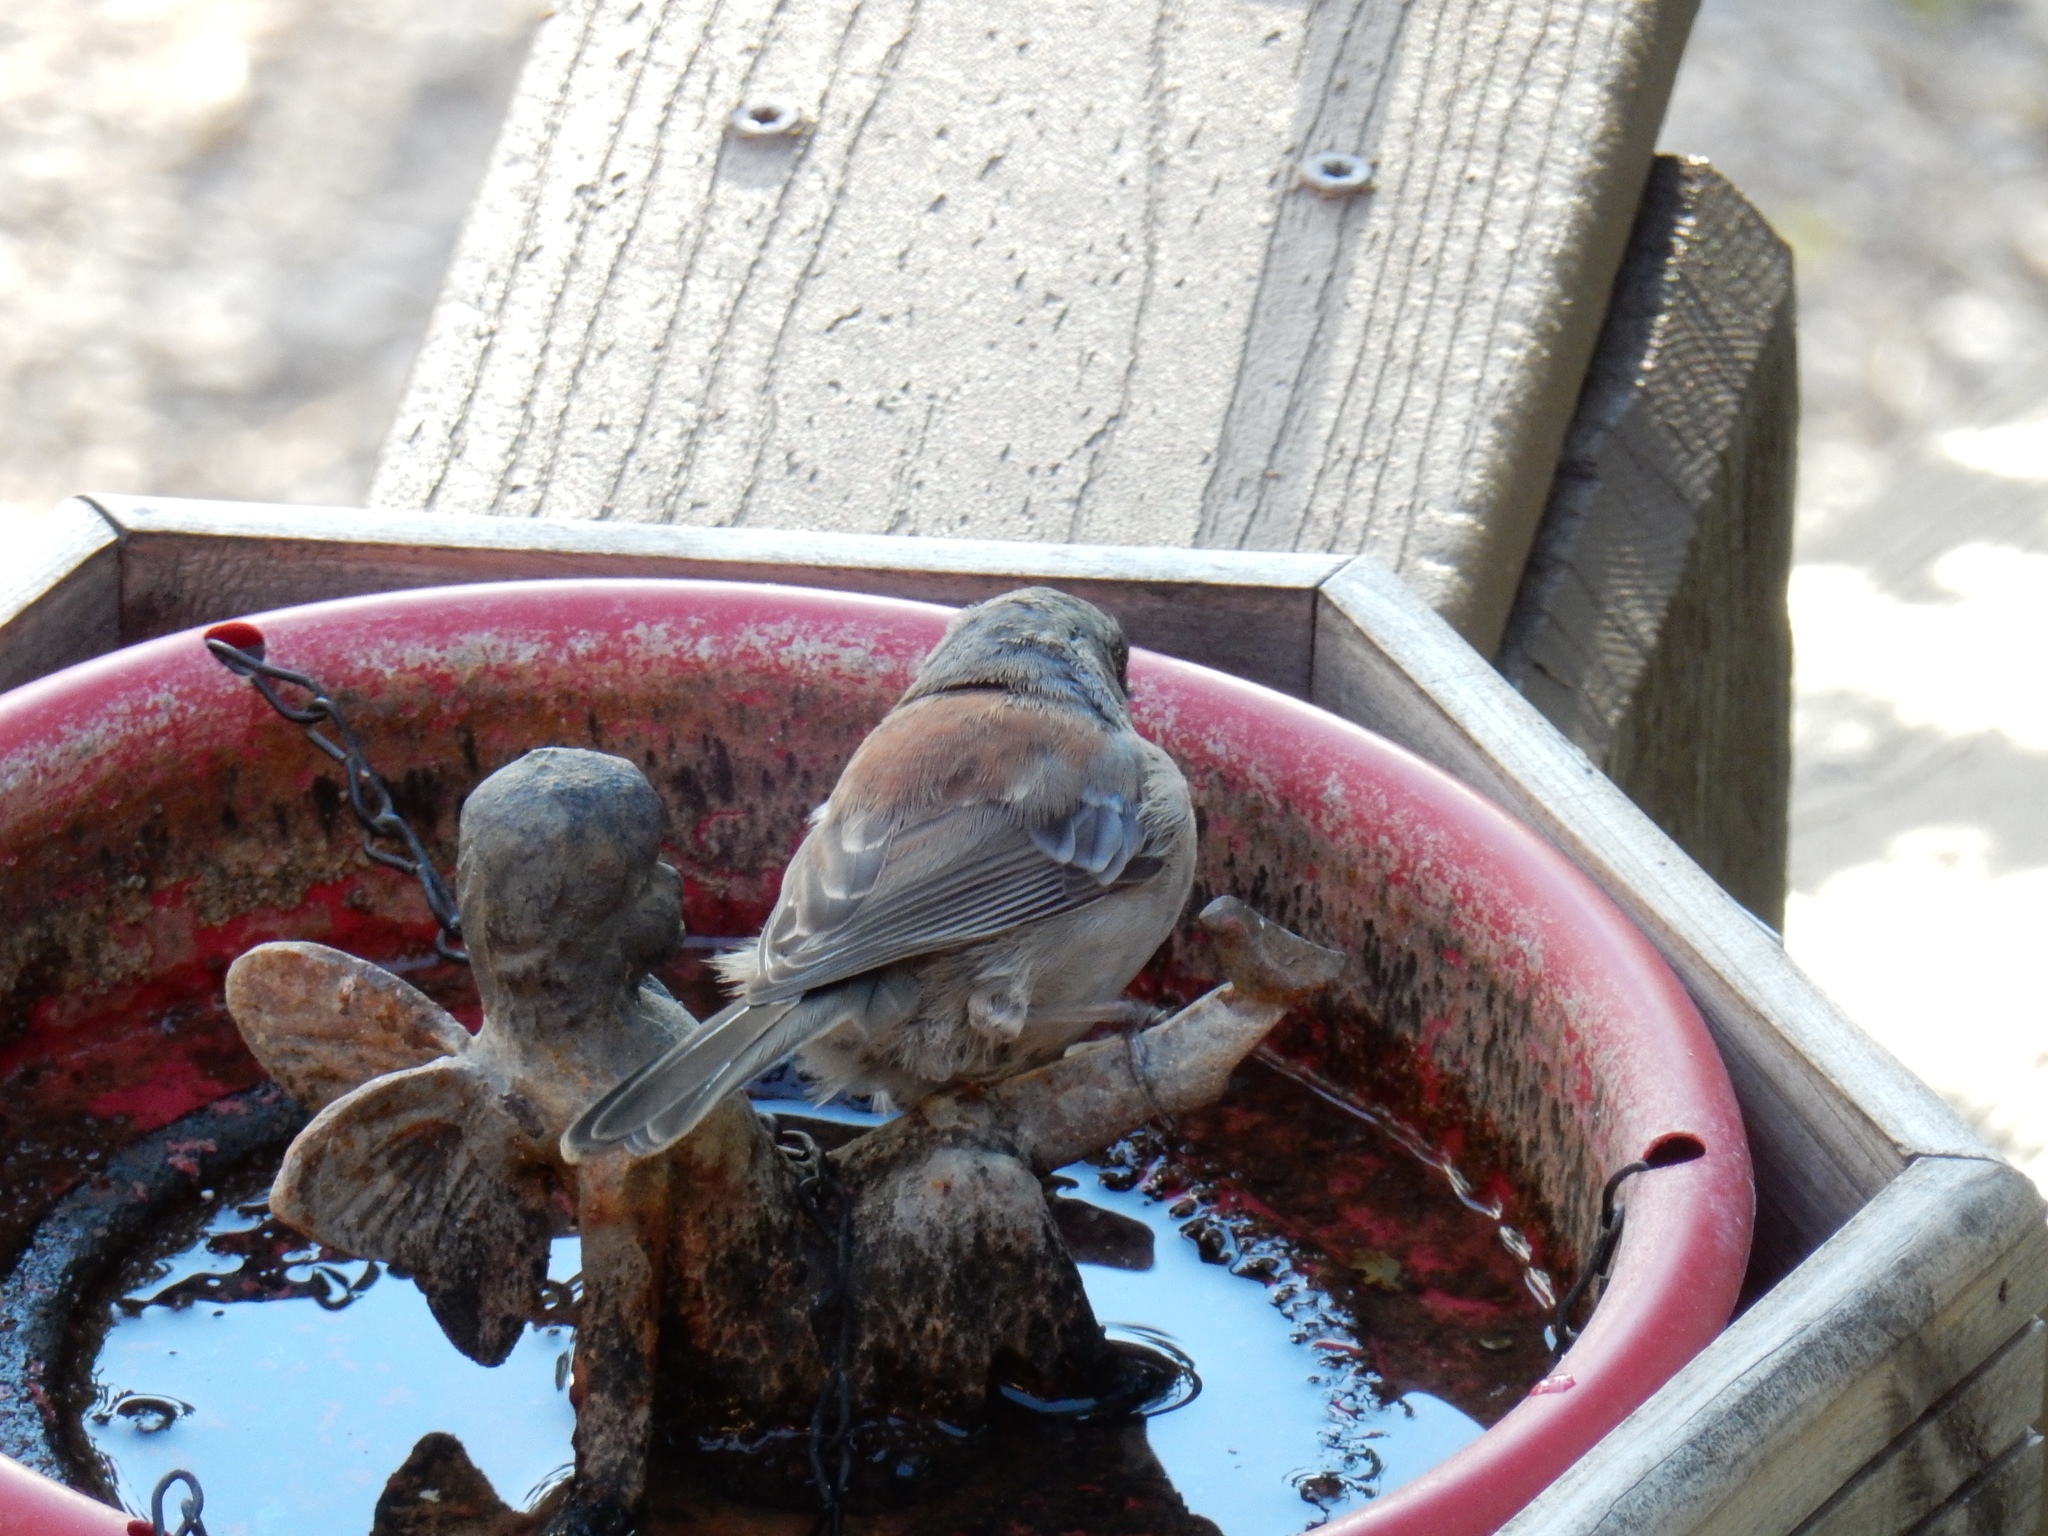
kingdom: Animalia
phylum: Chordata
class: Aves
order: Passeriformes
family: Passerellidae
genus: Junco
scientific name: Junco hyemalis
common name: Dark-eyed junco
